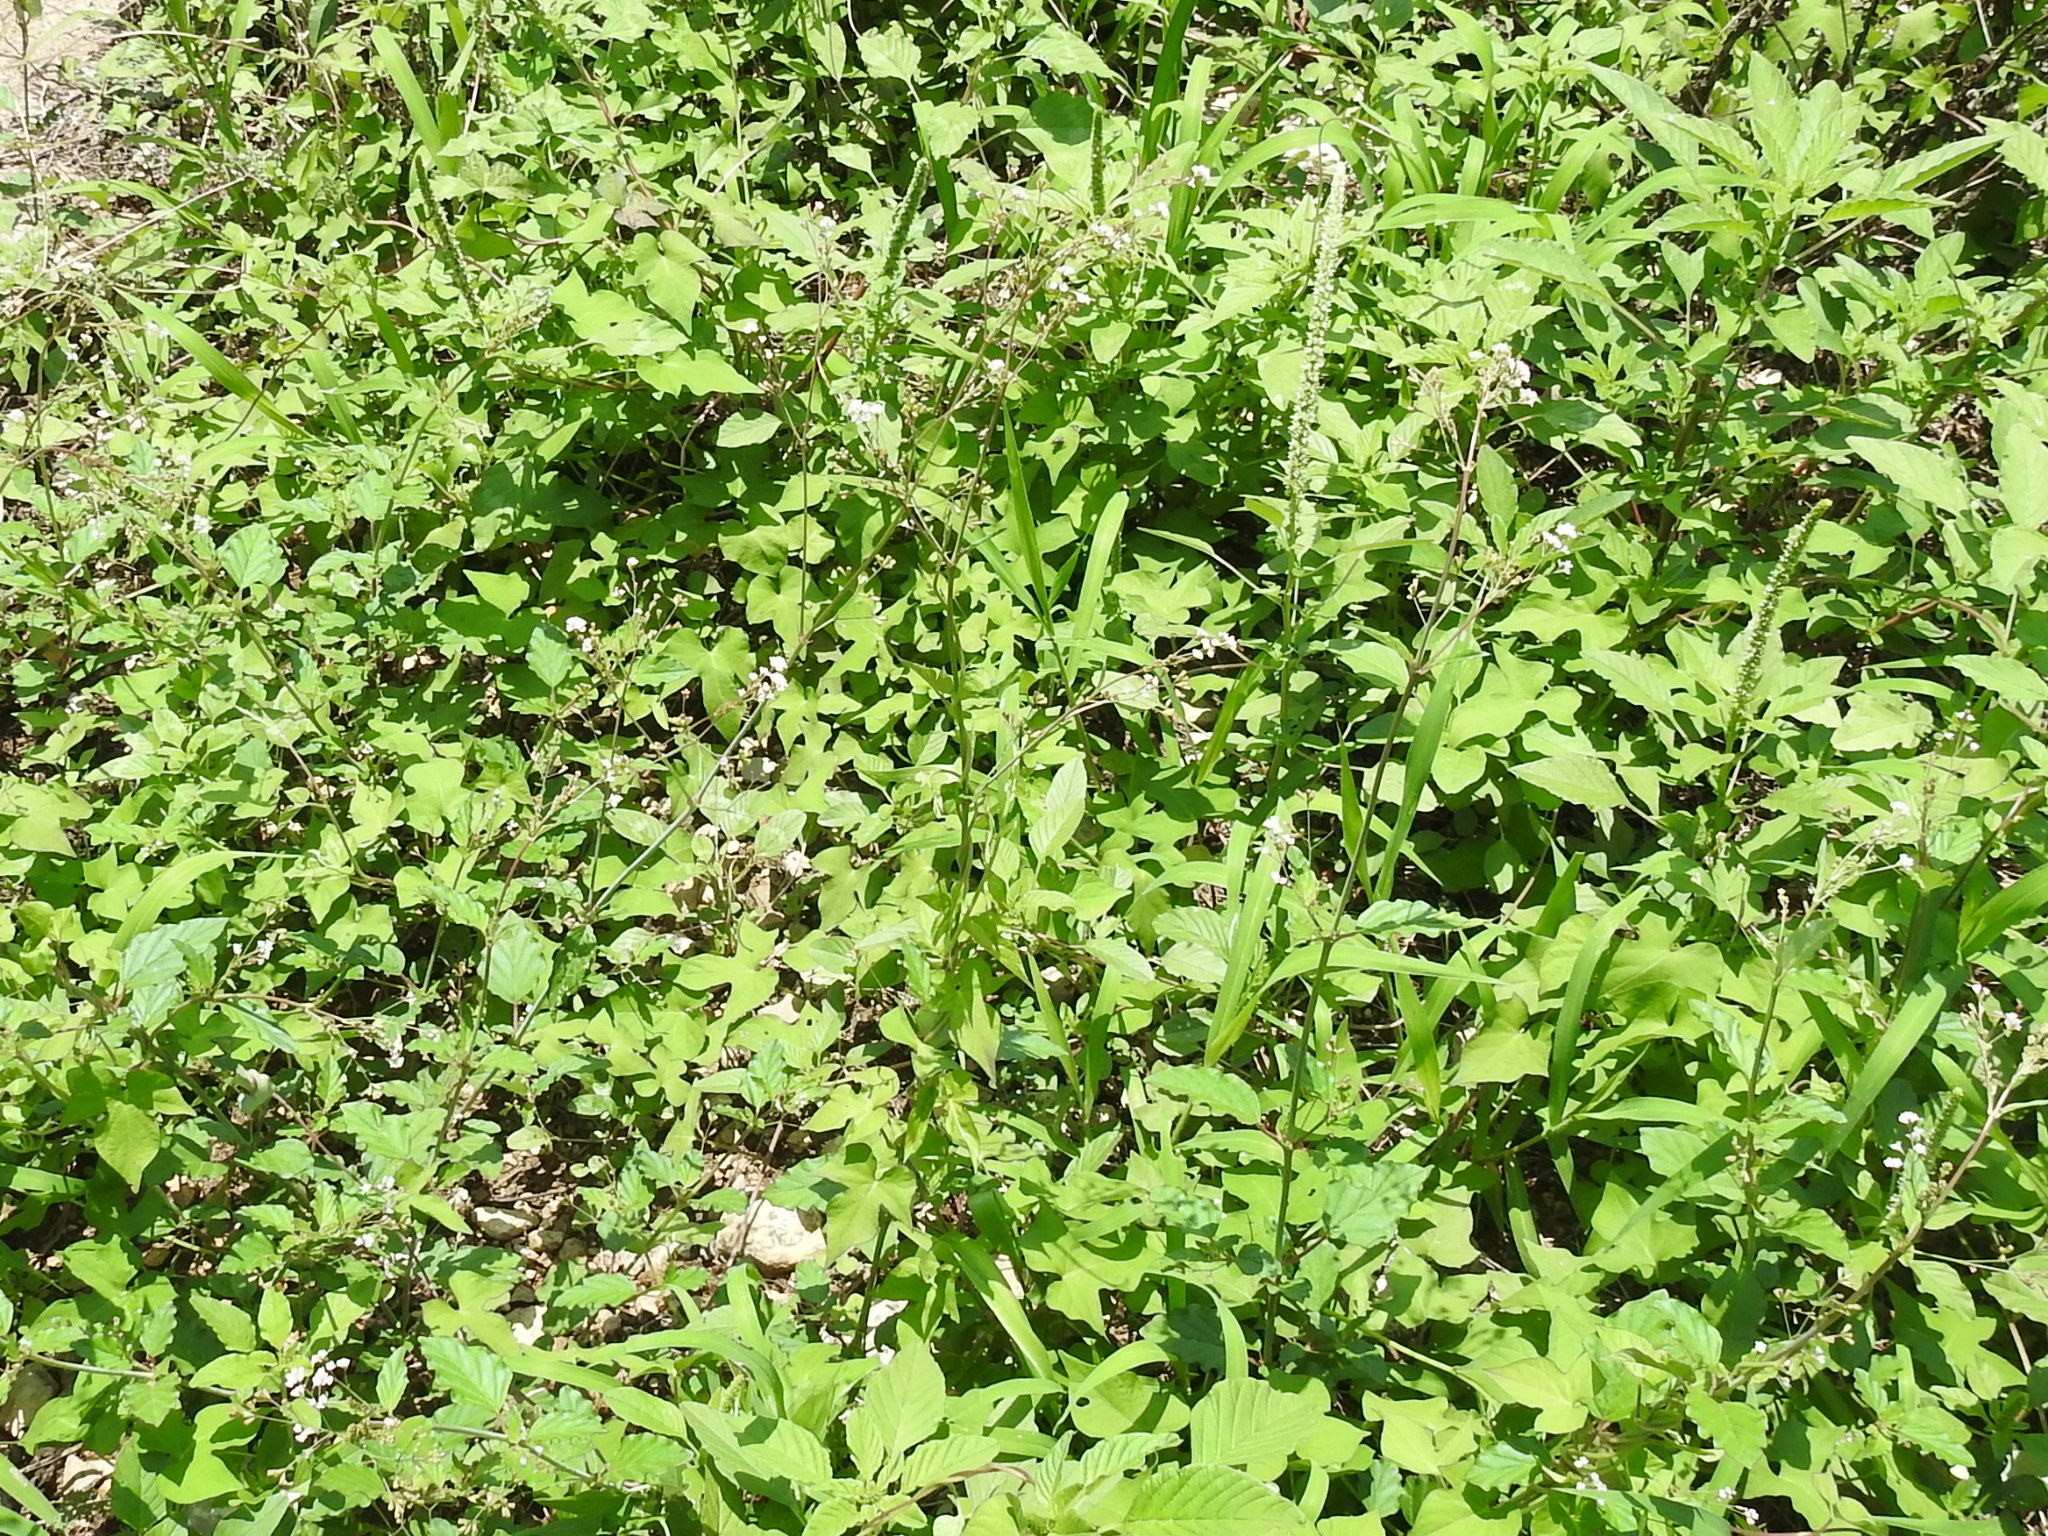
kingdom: Plantae
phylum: Tracheophyta
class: Magnoliopsida
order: Caryophyllales
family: Nyctaginaceae
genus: Boerhavia
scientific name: Boerhavia erecta
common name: Erect spiderling
